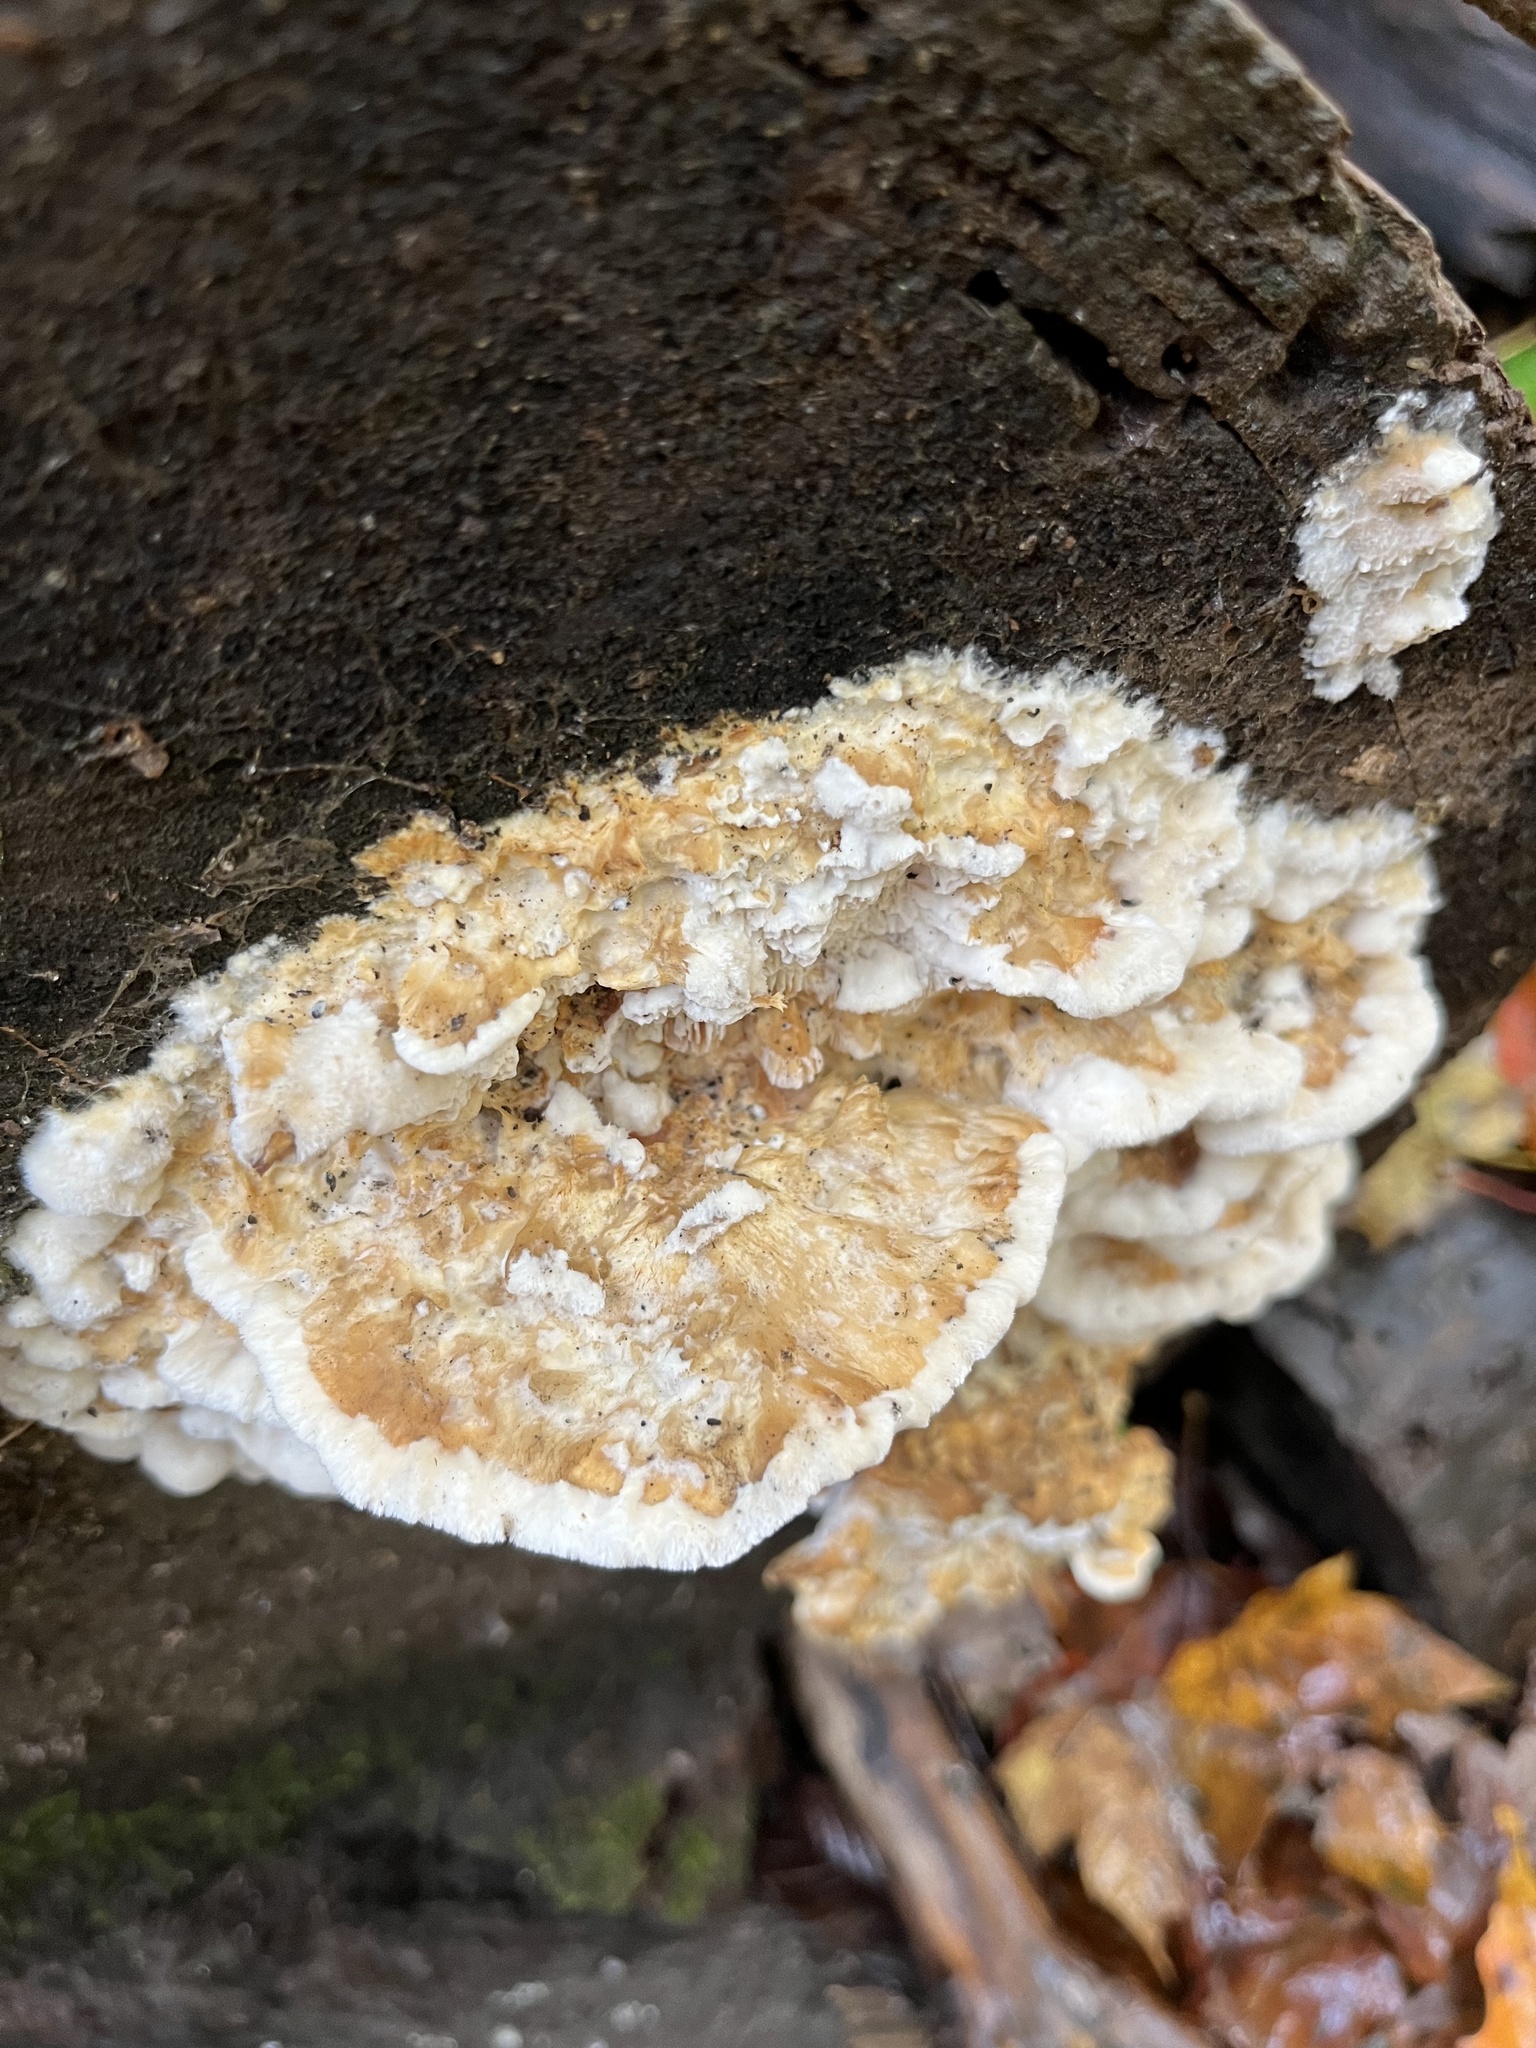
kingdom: Fungi
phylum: Basidiomycota
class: Agaricomycetes
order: Polyporales
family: Irpicaceae
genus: Trametopsis
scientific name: Trametopsis cervina
